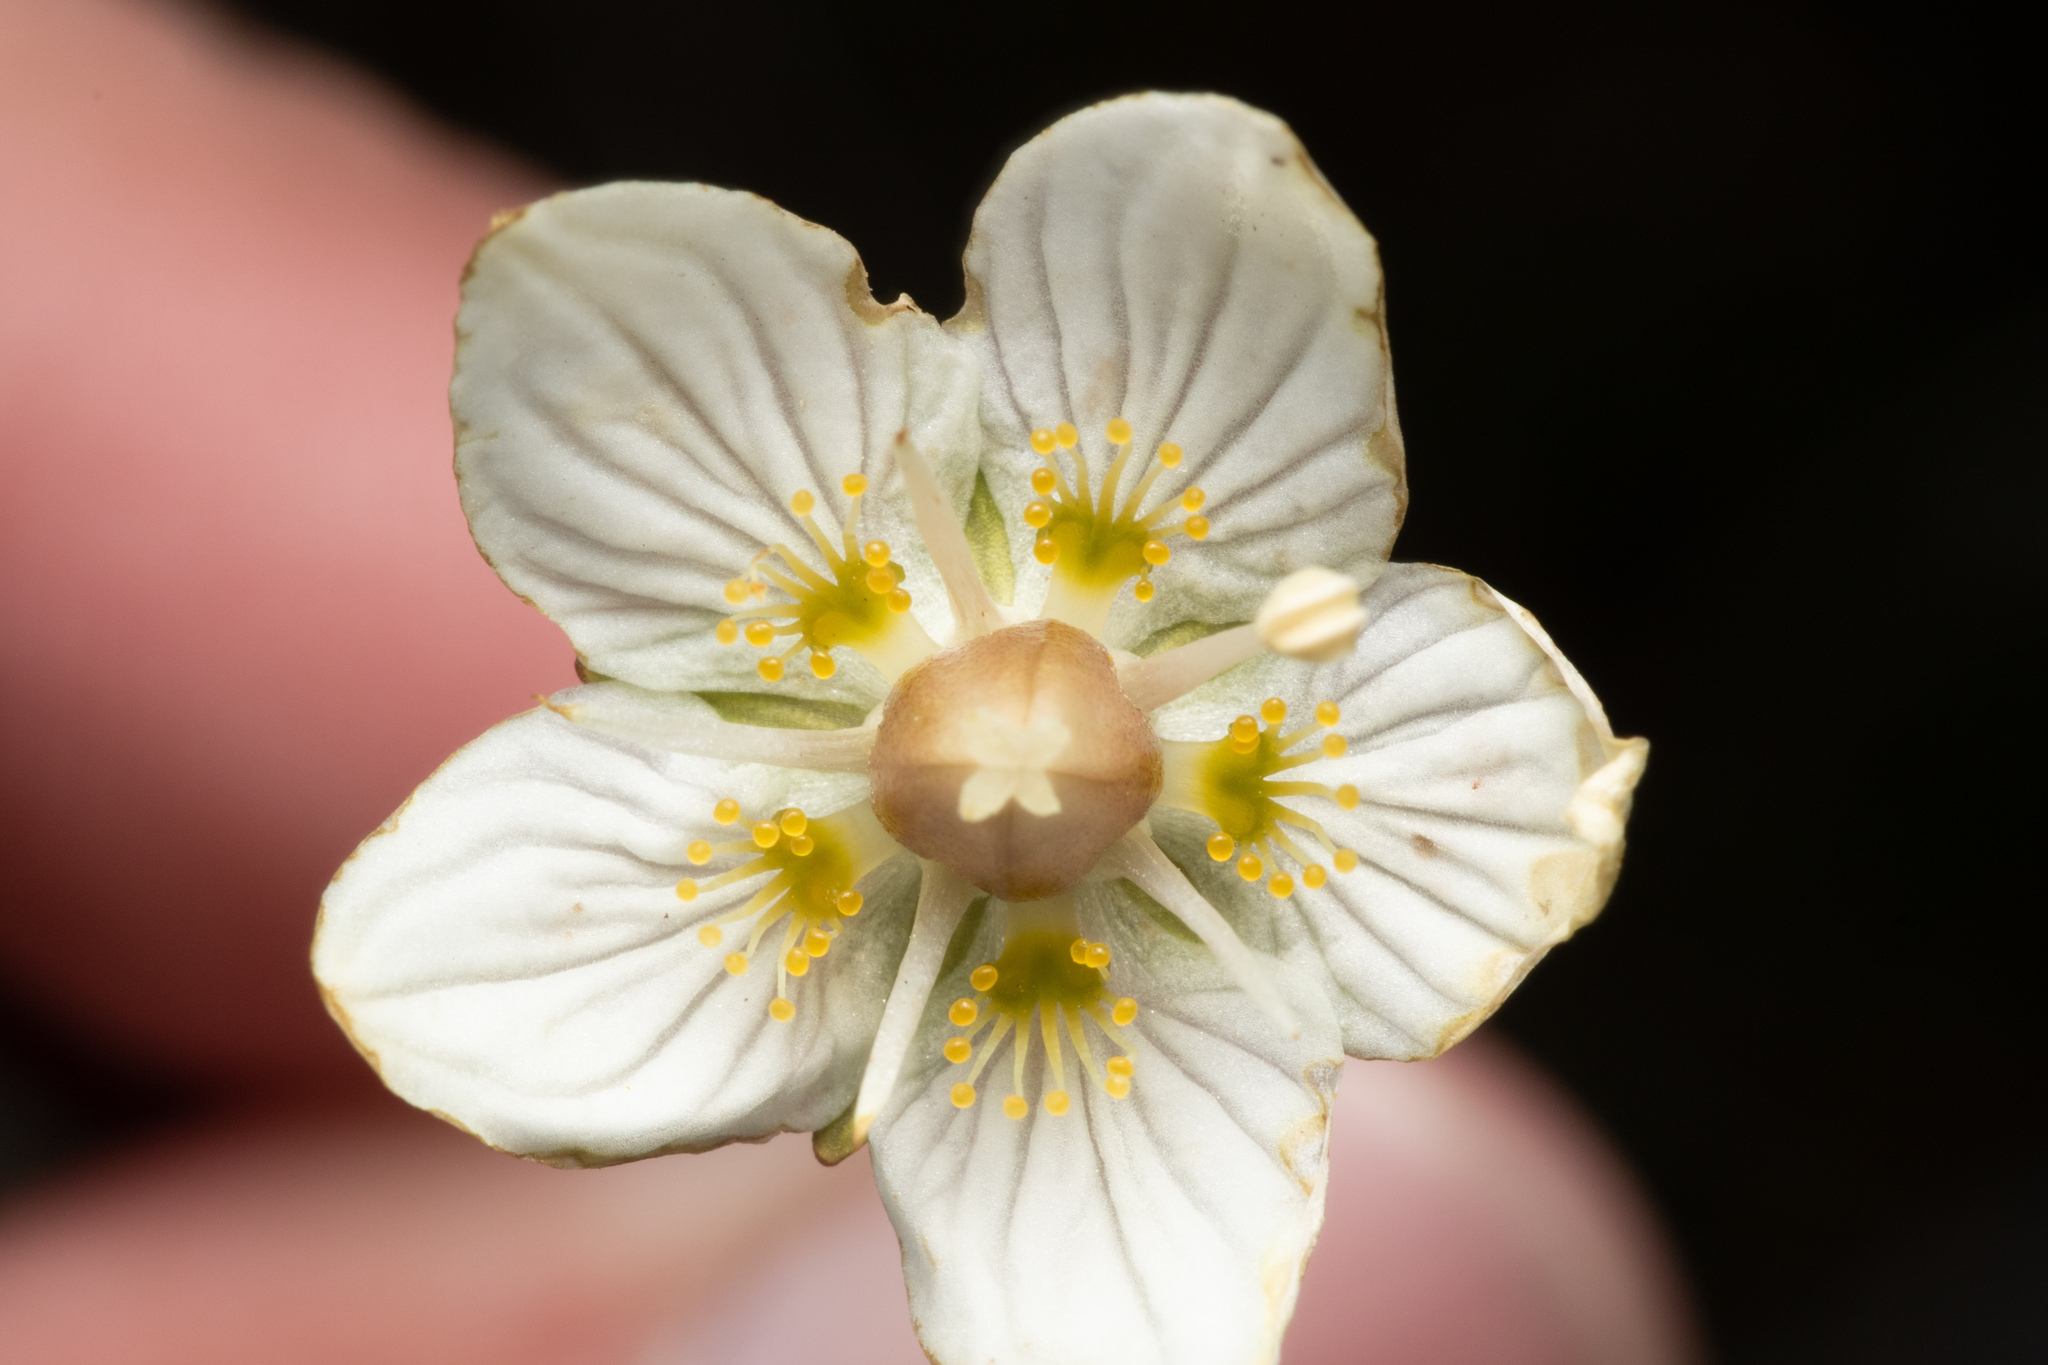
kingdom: Plantae
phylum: Tracheophyta
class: Magnoliopsida
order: Celastrales
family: Parnassiaceae
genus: Parnassia
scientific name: Parnassia palustris
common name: Grass-of-parnassus
